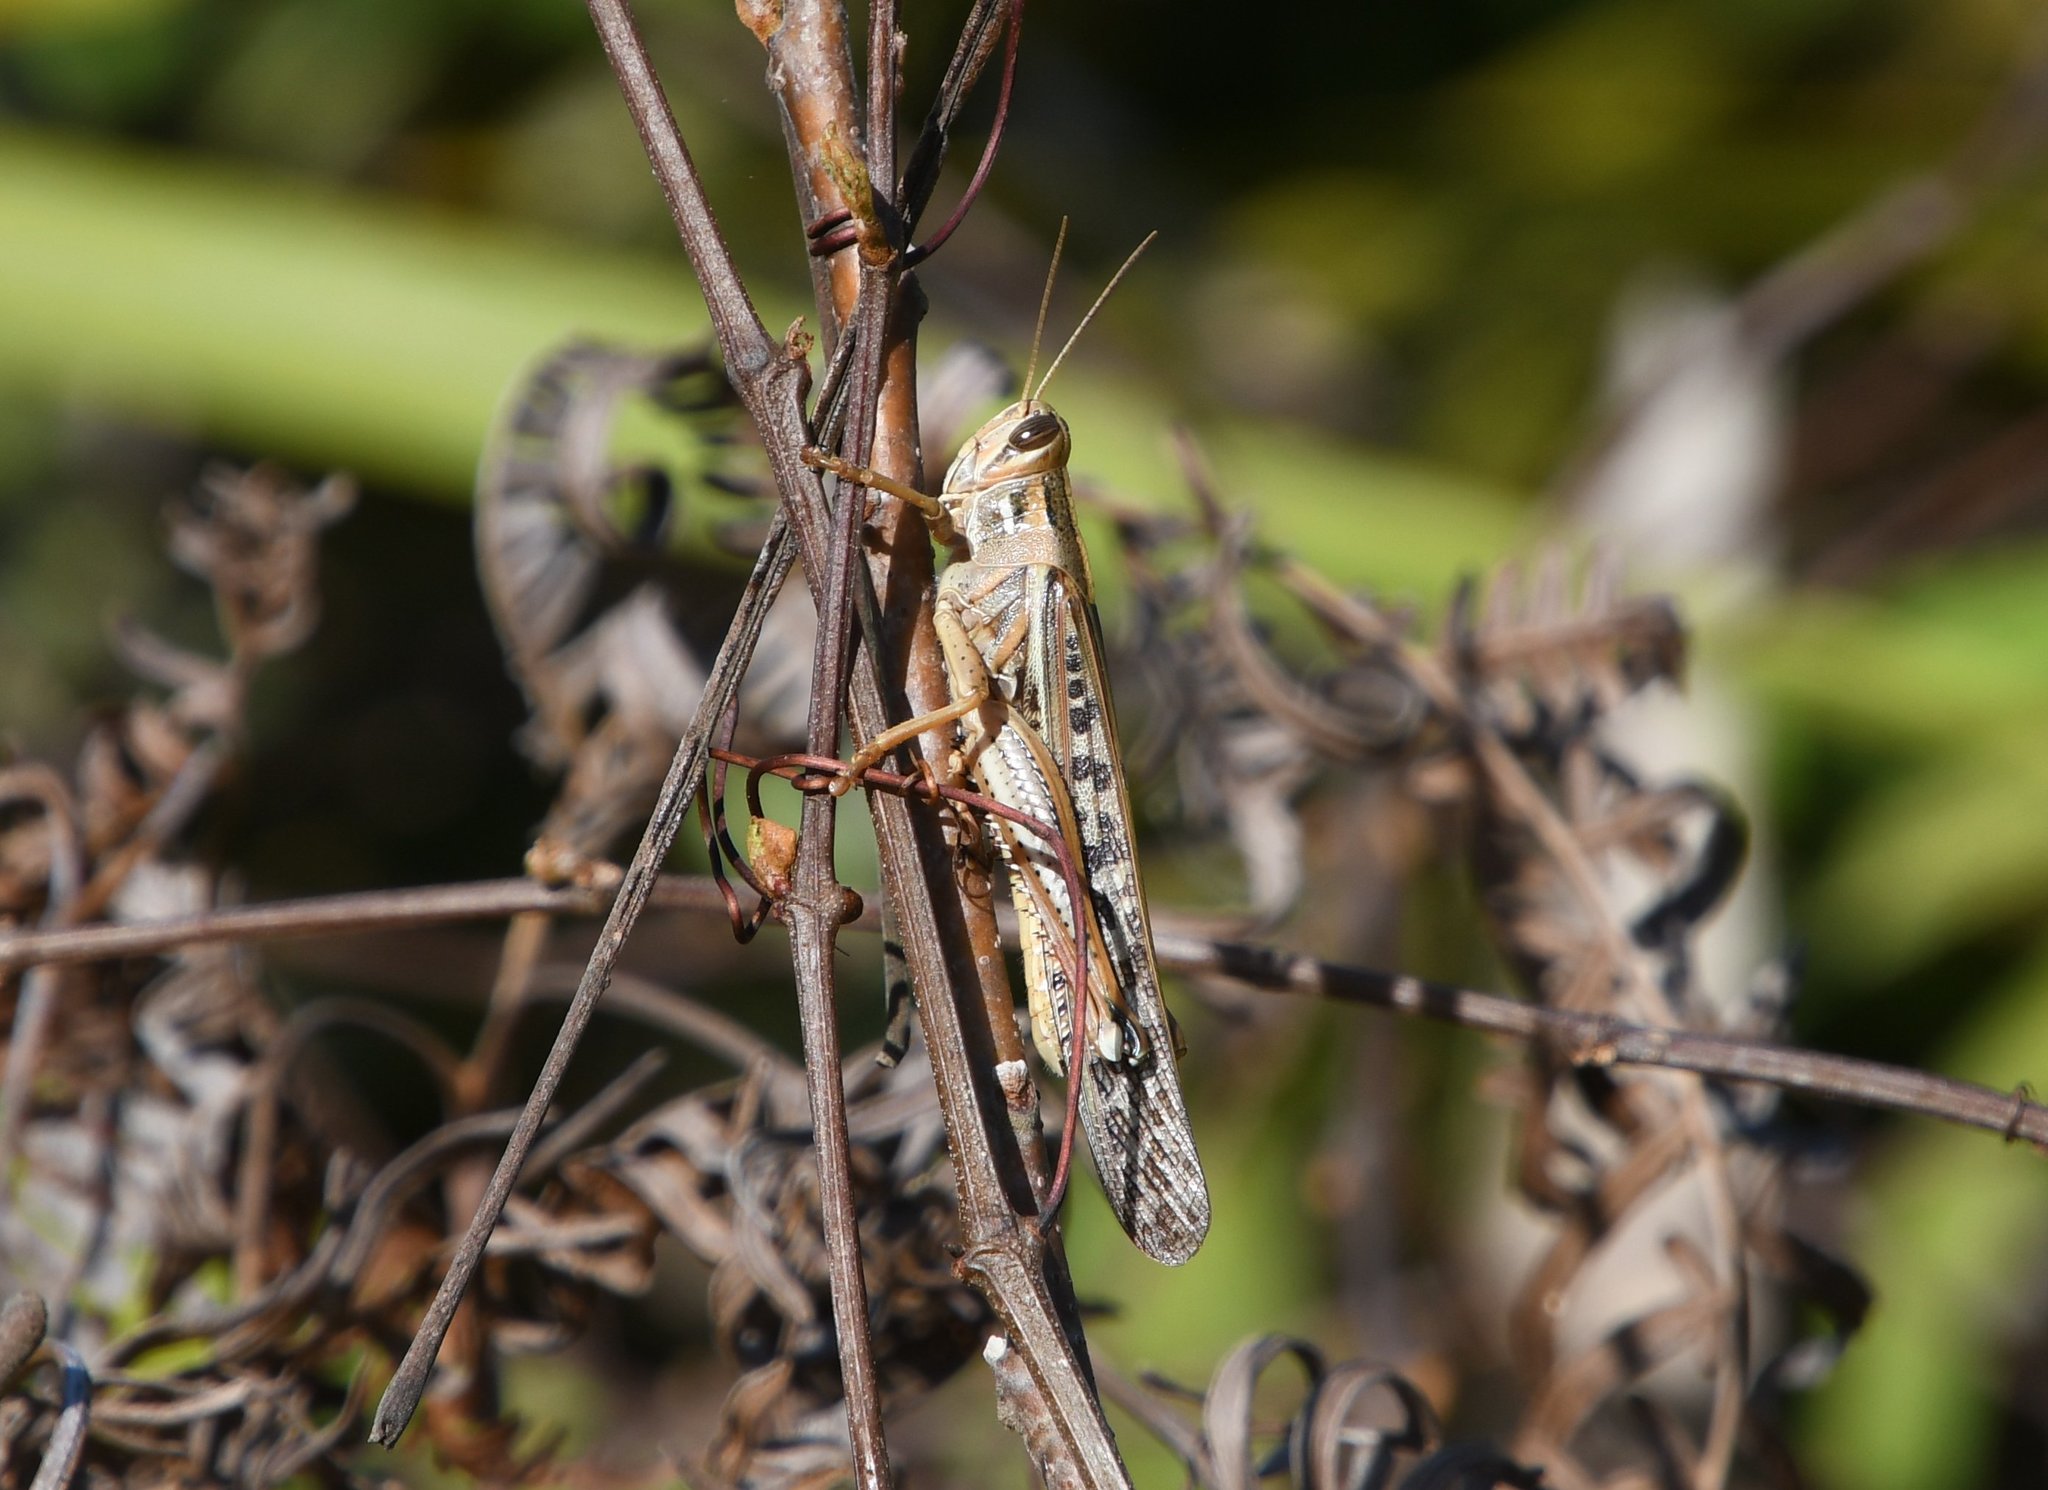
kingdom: Animalia
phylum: Arthropoda
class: Insecta
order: Orthoptera
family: Acrididae
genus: Schistocerca
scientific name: Schistocerca americana
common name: American bird locust
